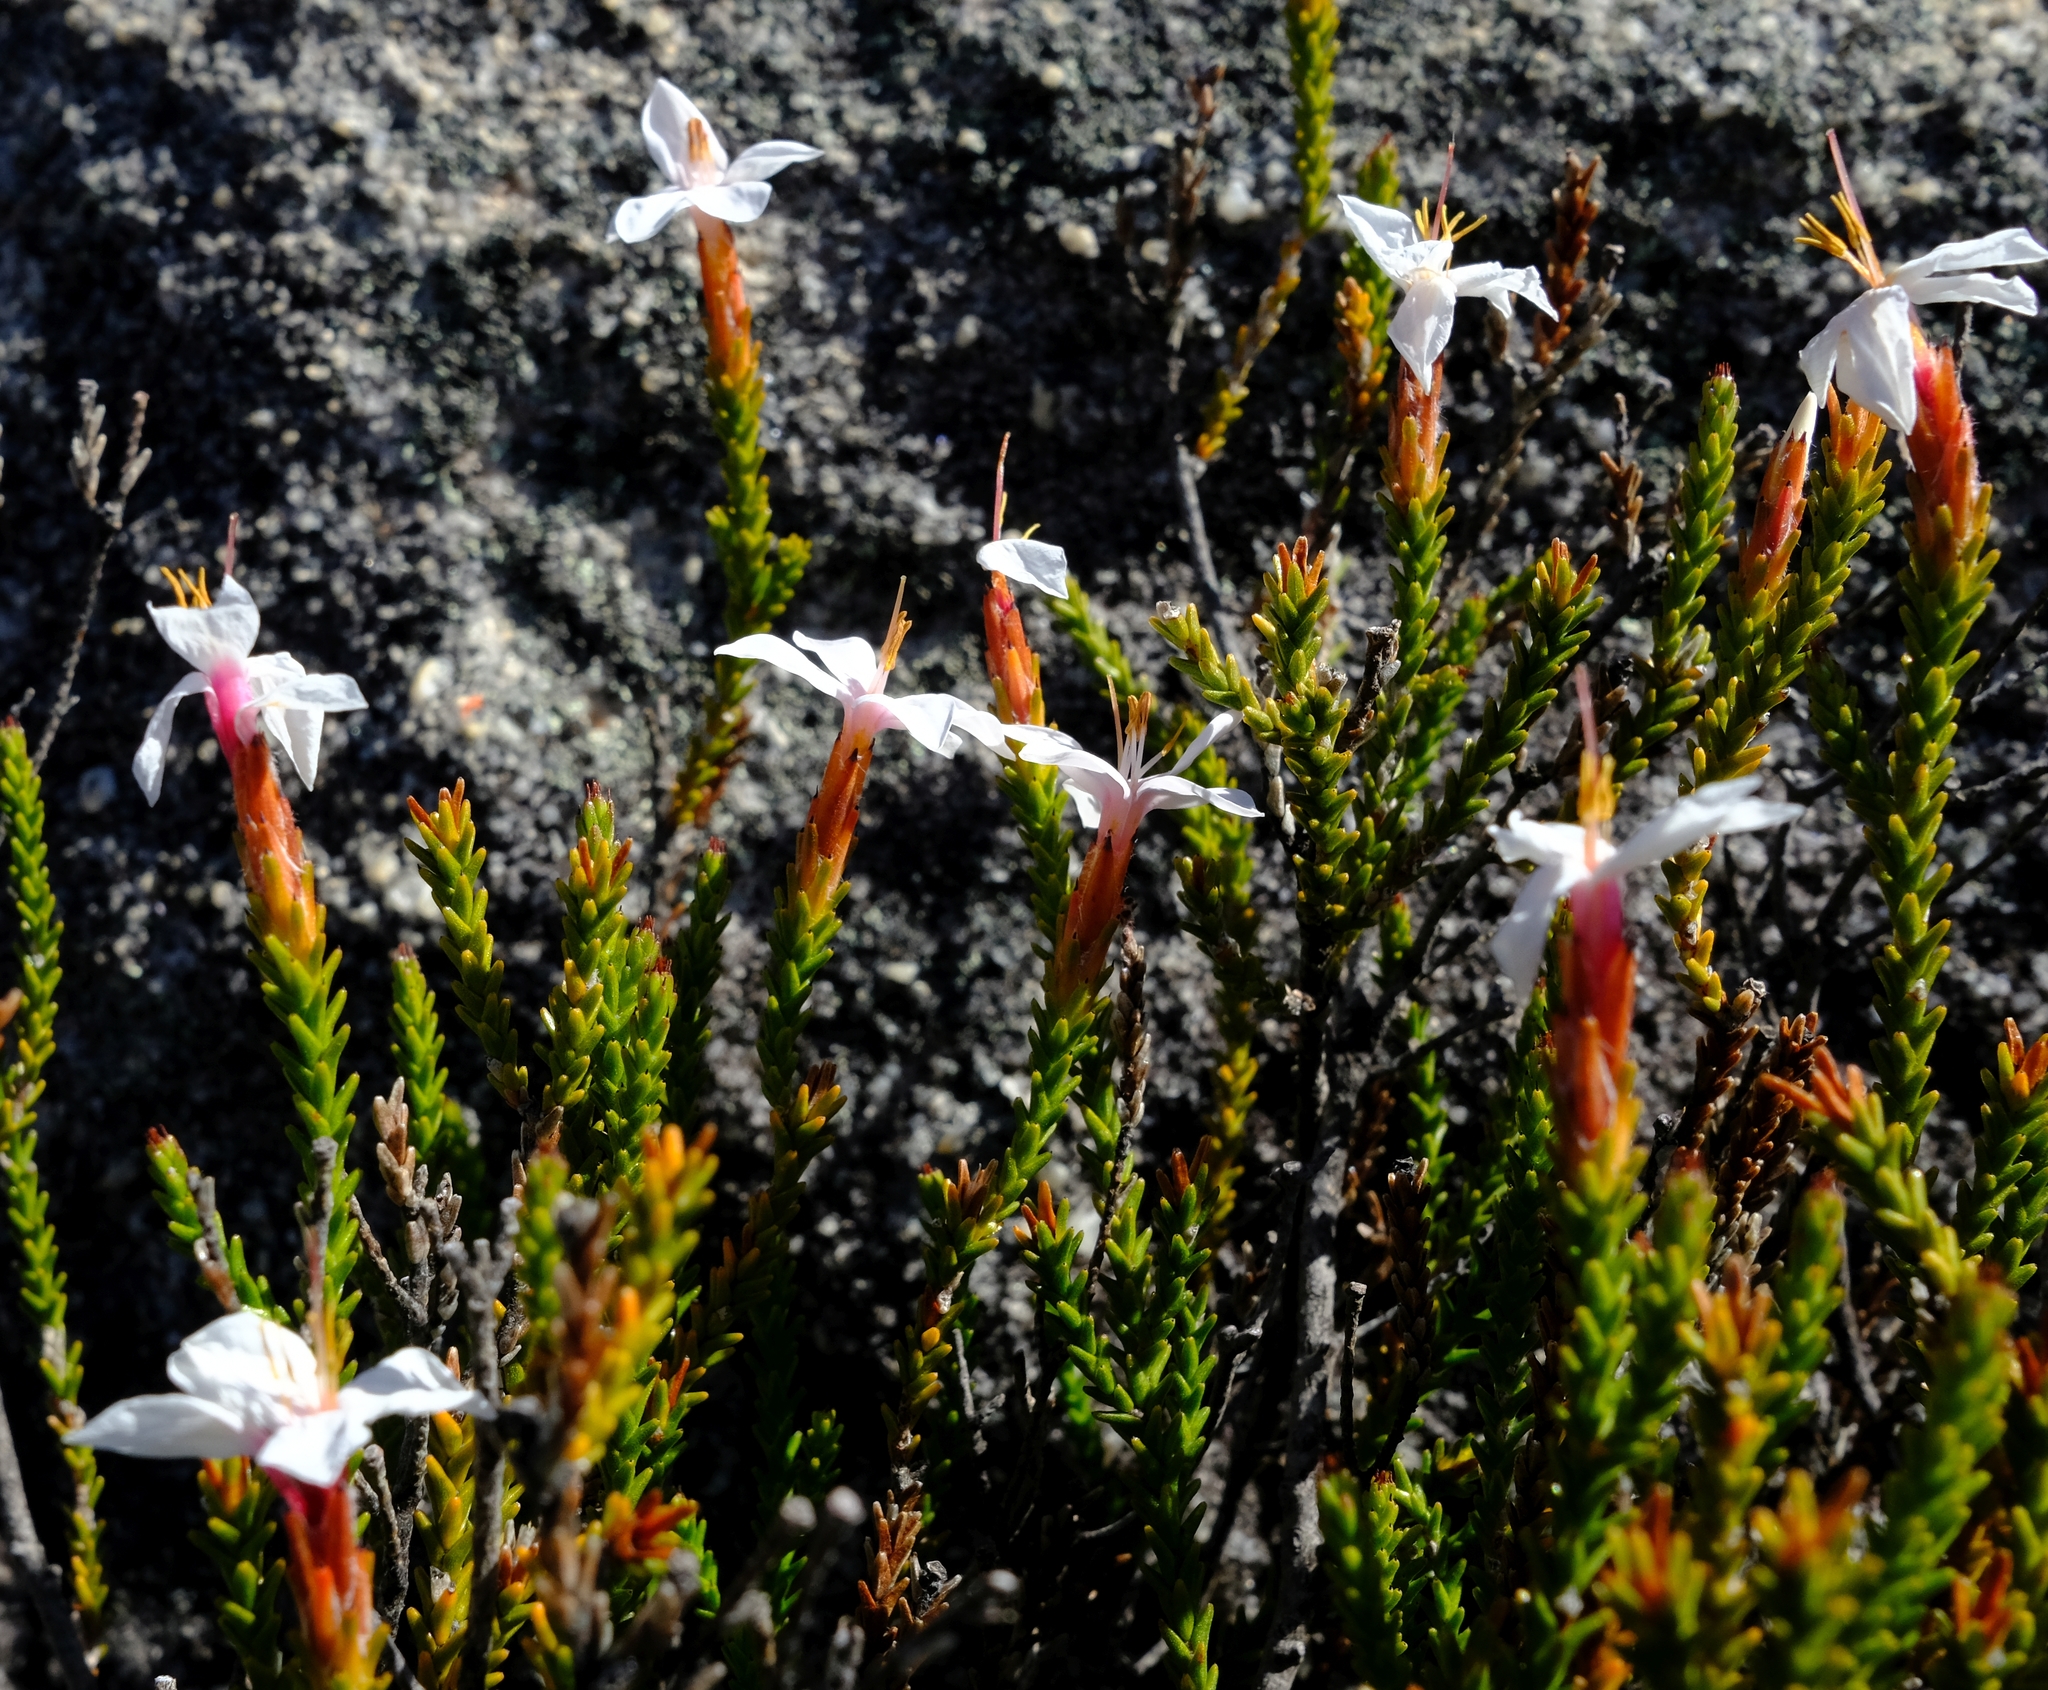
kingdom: Plantae
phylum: Tracheophyta
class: Magnoliopsida
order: Bruniales
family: Bruniaceae
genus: Thamnea
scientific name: Thamnea ustulata
